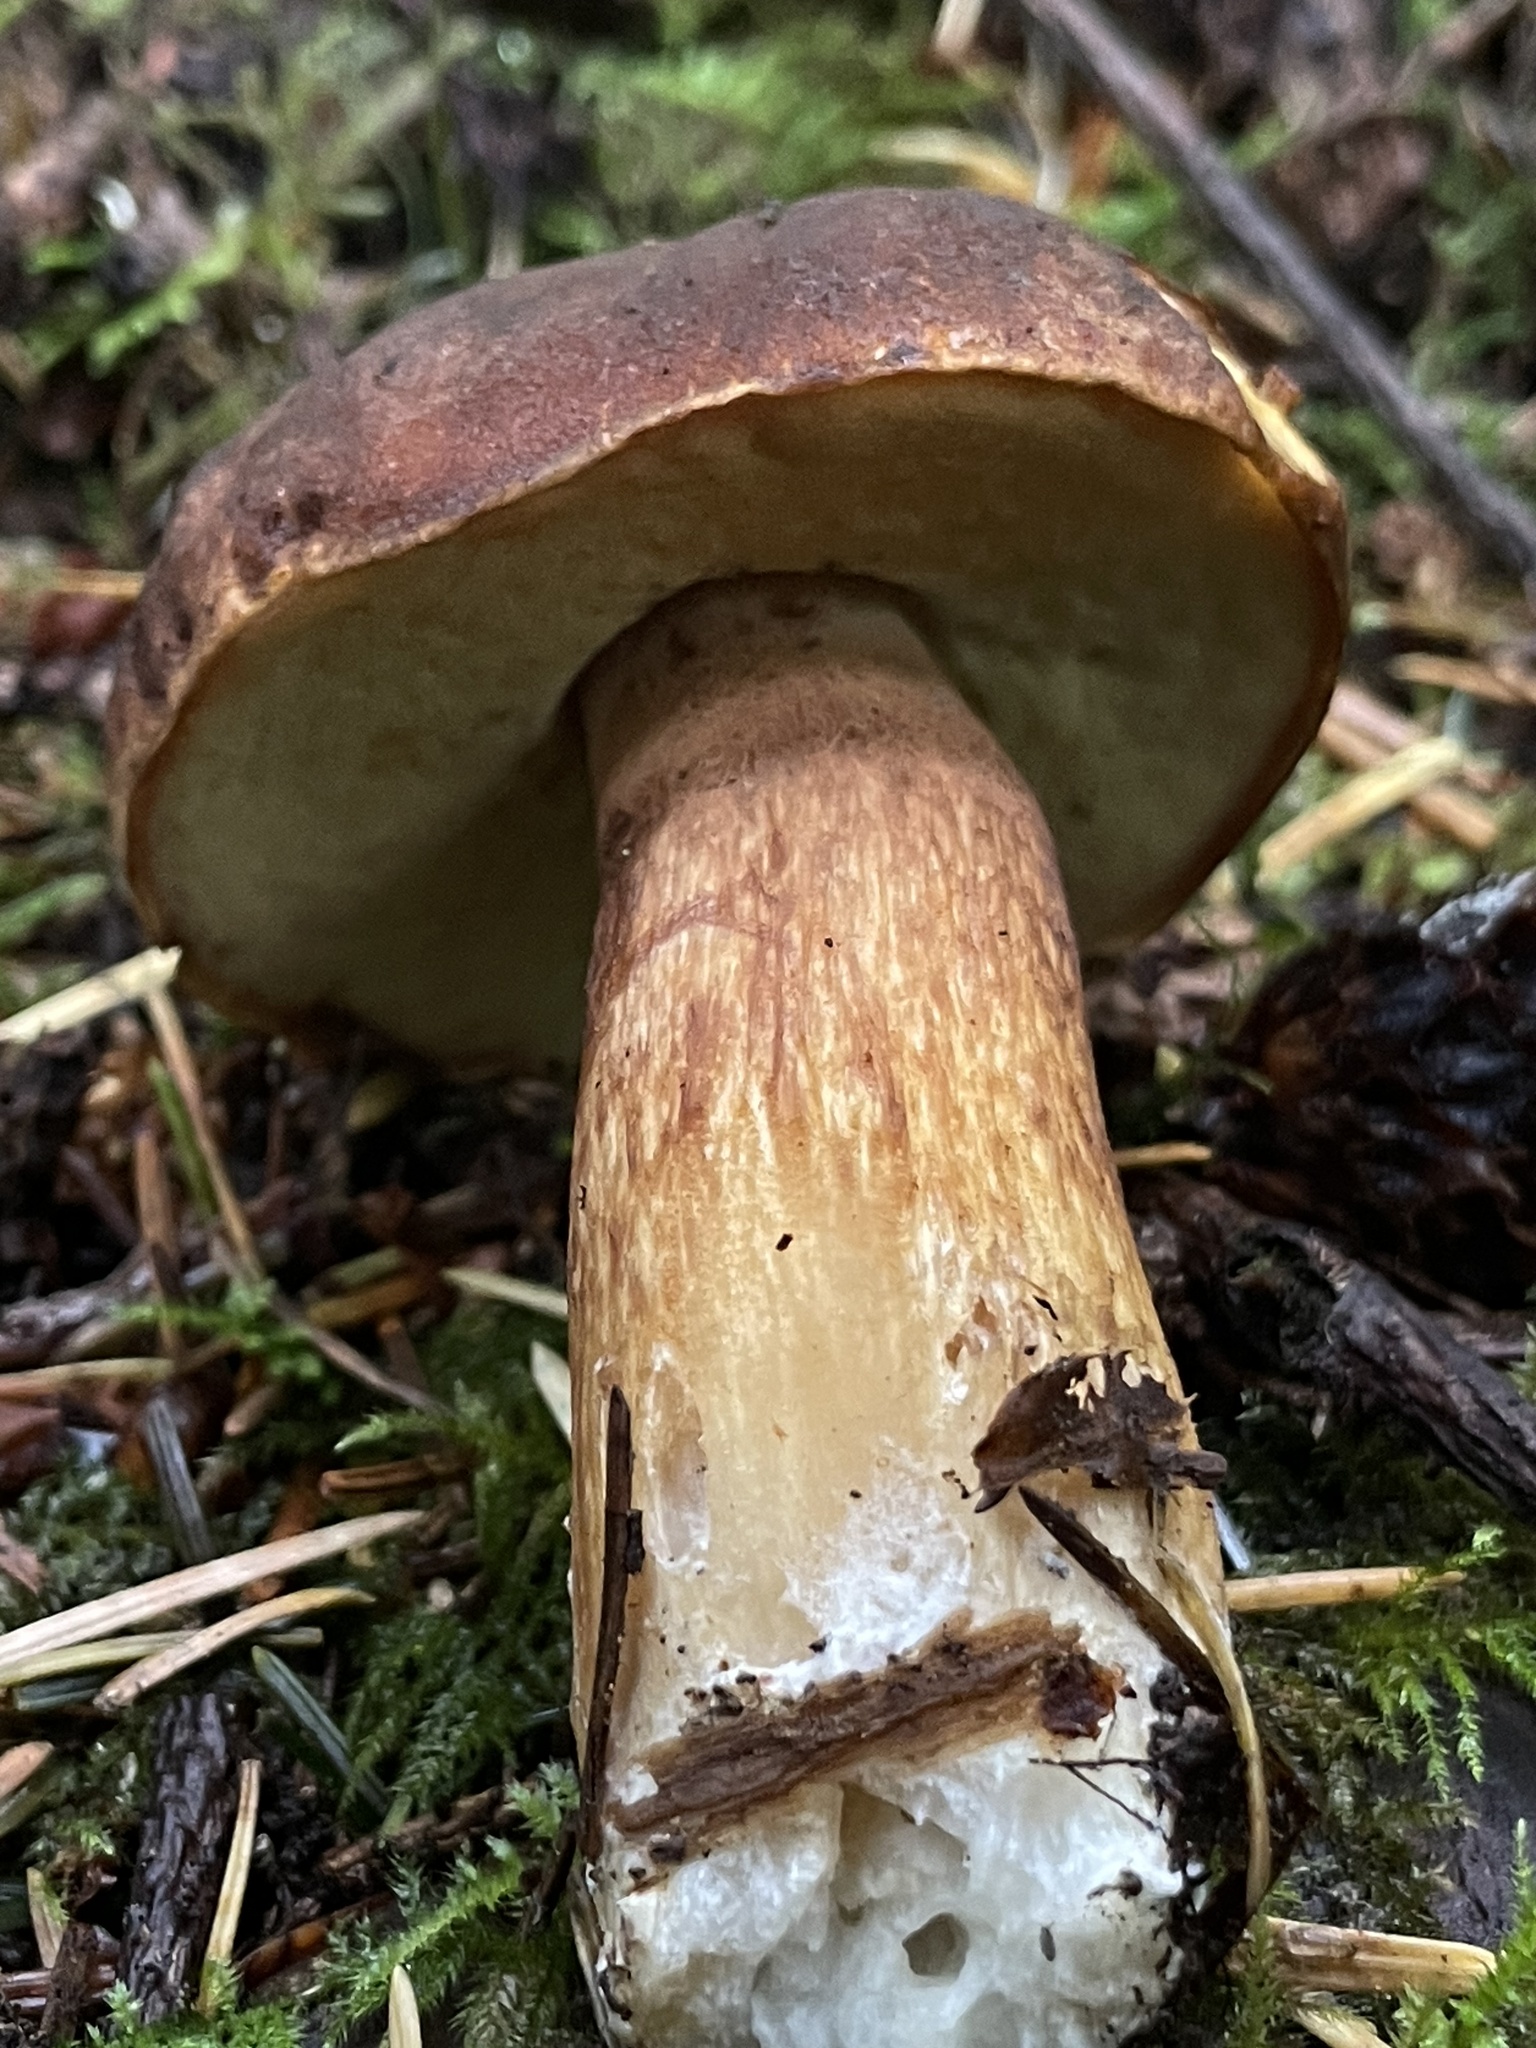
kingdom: Fungi
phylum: Basidiomycota
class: Agaricomycetes
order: Boletales
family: Boletaceae
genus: Boletus
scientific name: Boletus fibrillosus
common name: Fib king
